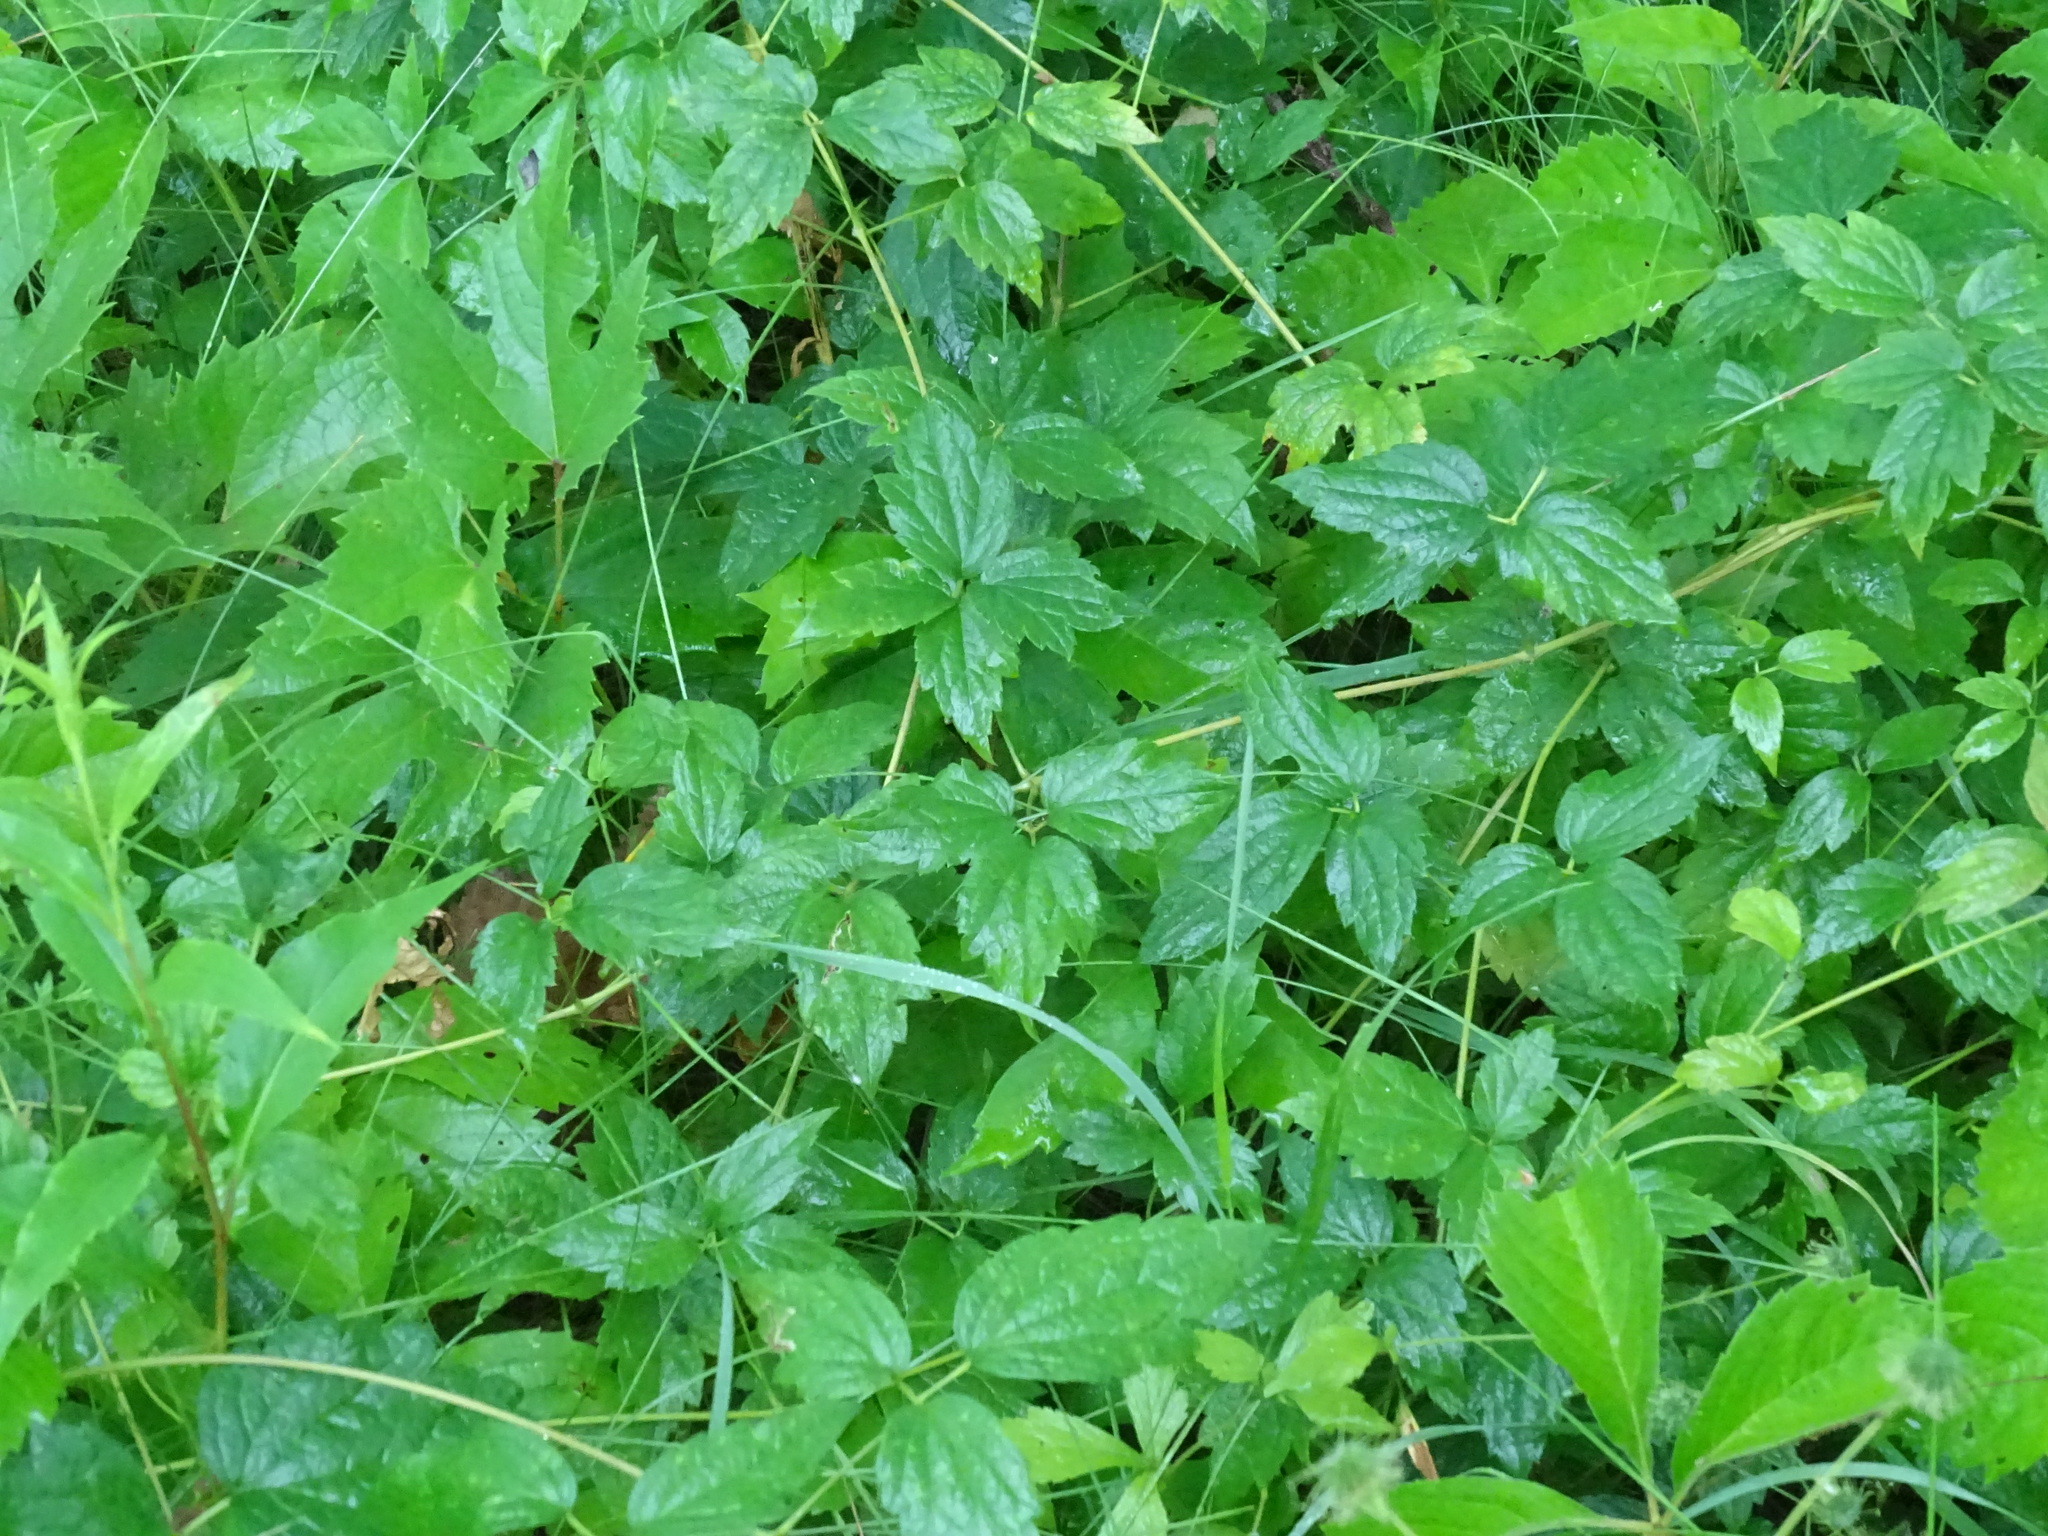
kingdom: Plantae
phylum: Tracheophyta
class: Magnoliopsida
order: Ranunculales
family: Ranunculaceae
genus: Clematis
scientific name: Clematis virginiana
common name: Virgin's-bower
